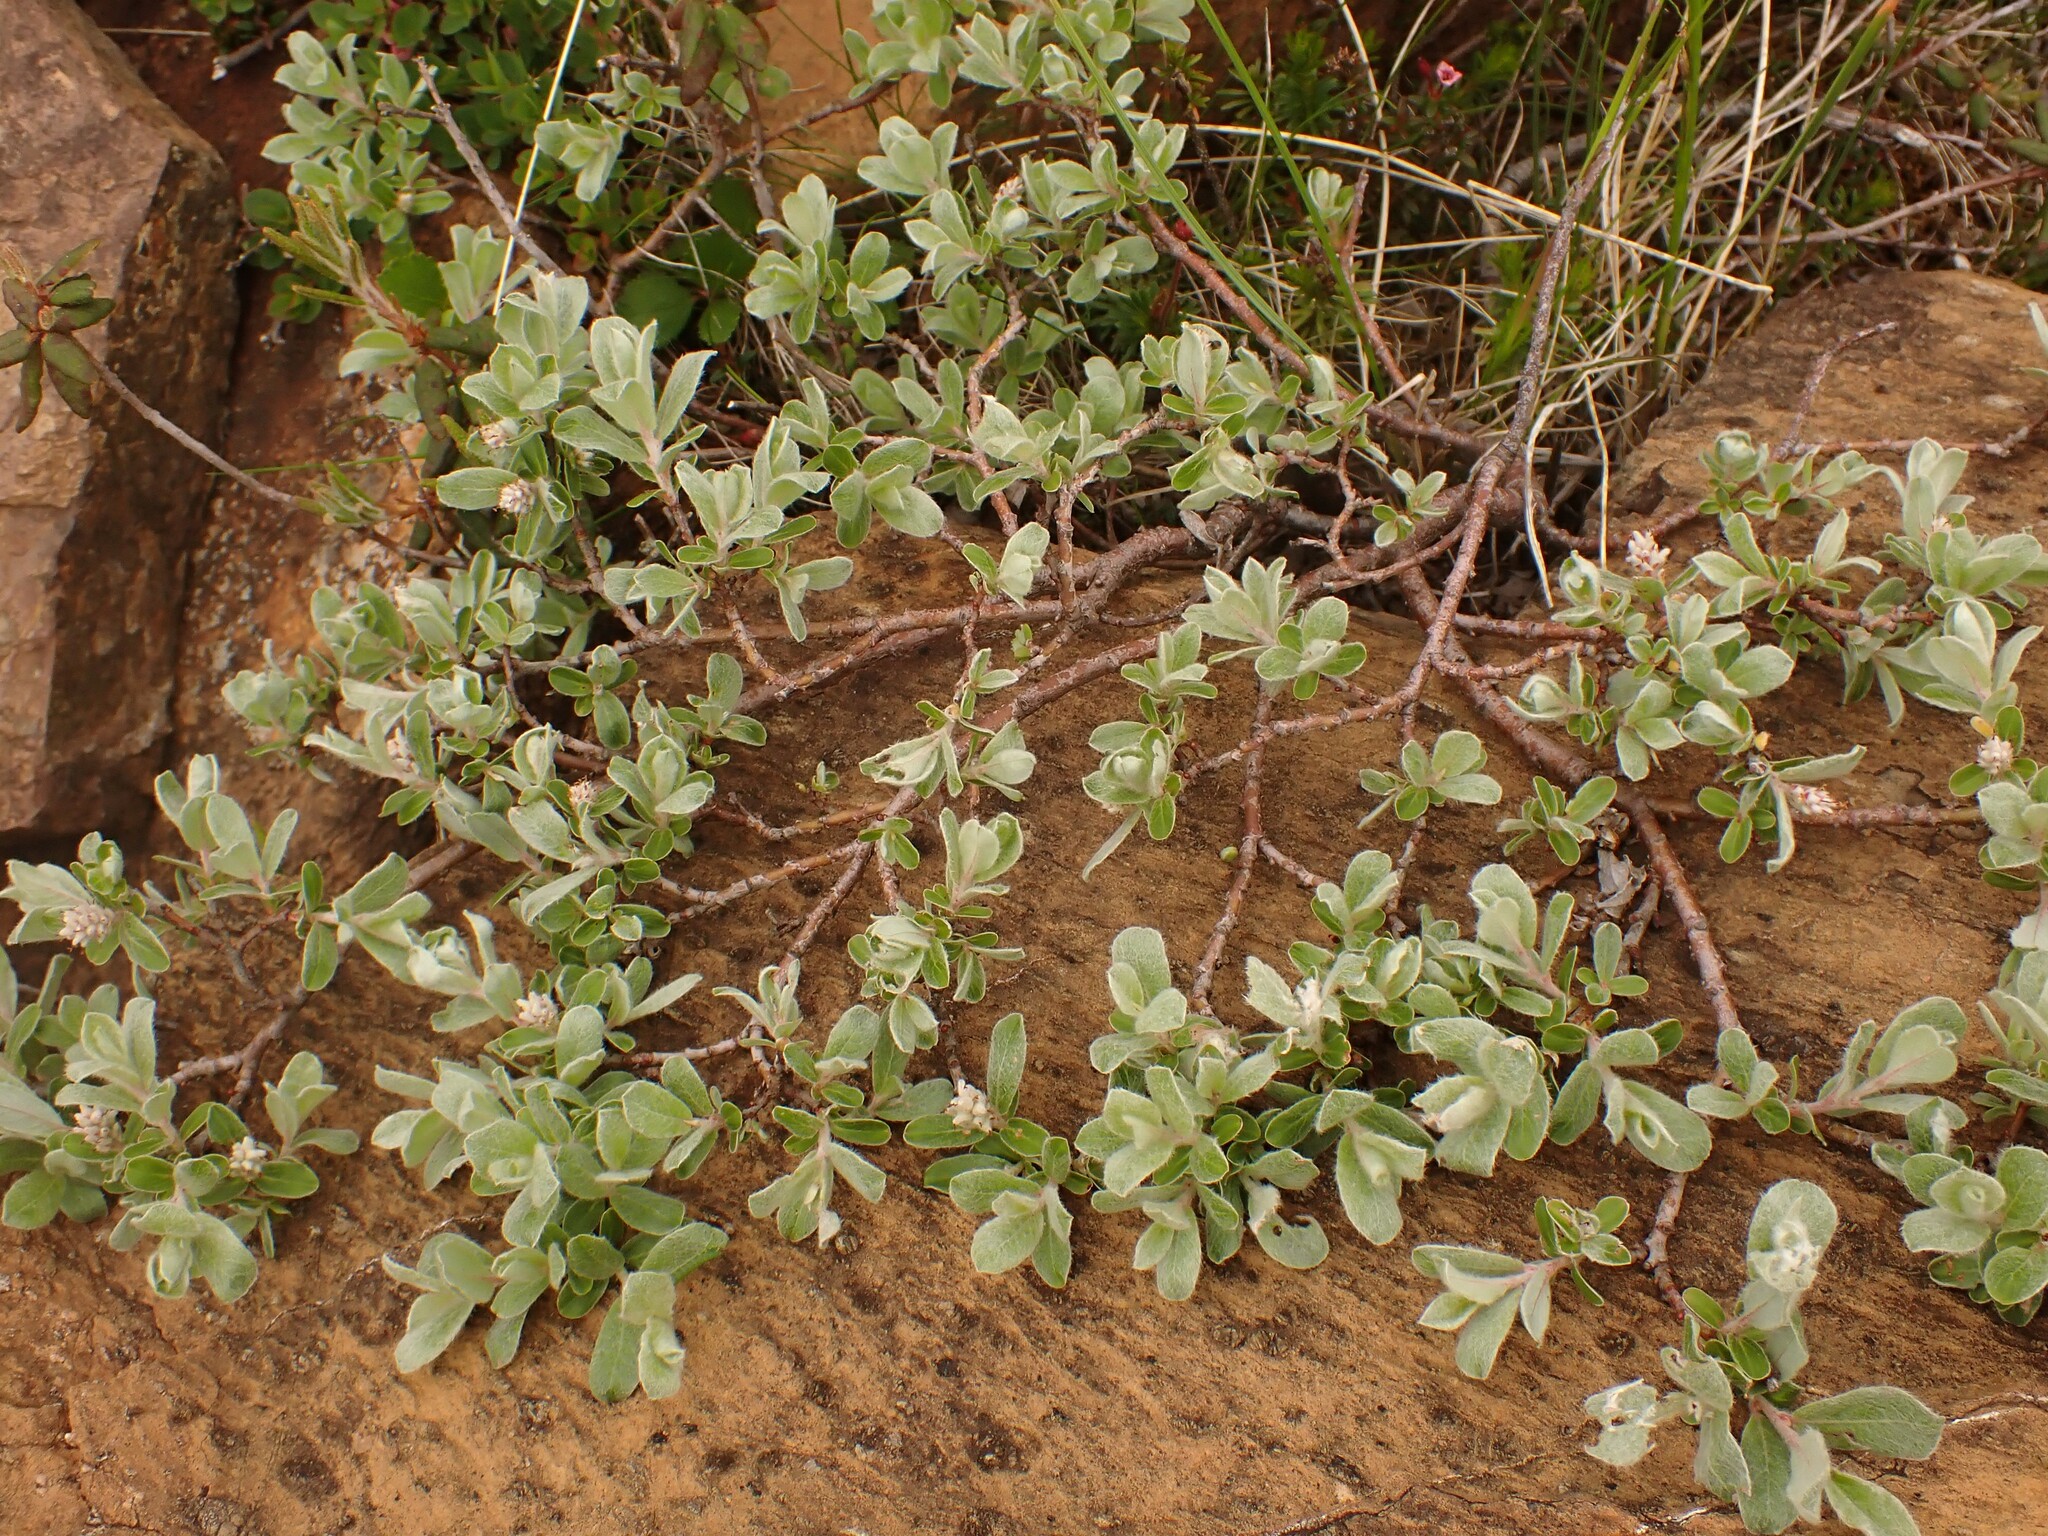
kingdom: Plantae
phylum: Tracheophyta
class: Magnoliopsida
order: Malpighiales
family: Salicaceae
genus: Salix
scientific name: Salix brachycarpa
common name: Barren-ground willow
